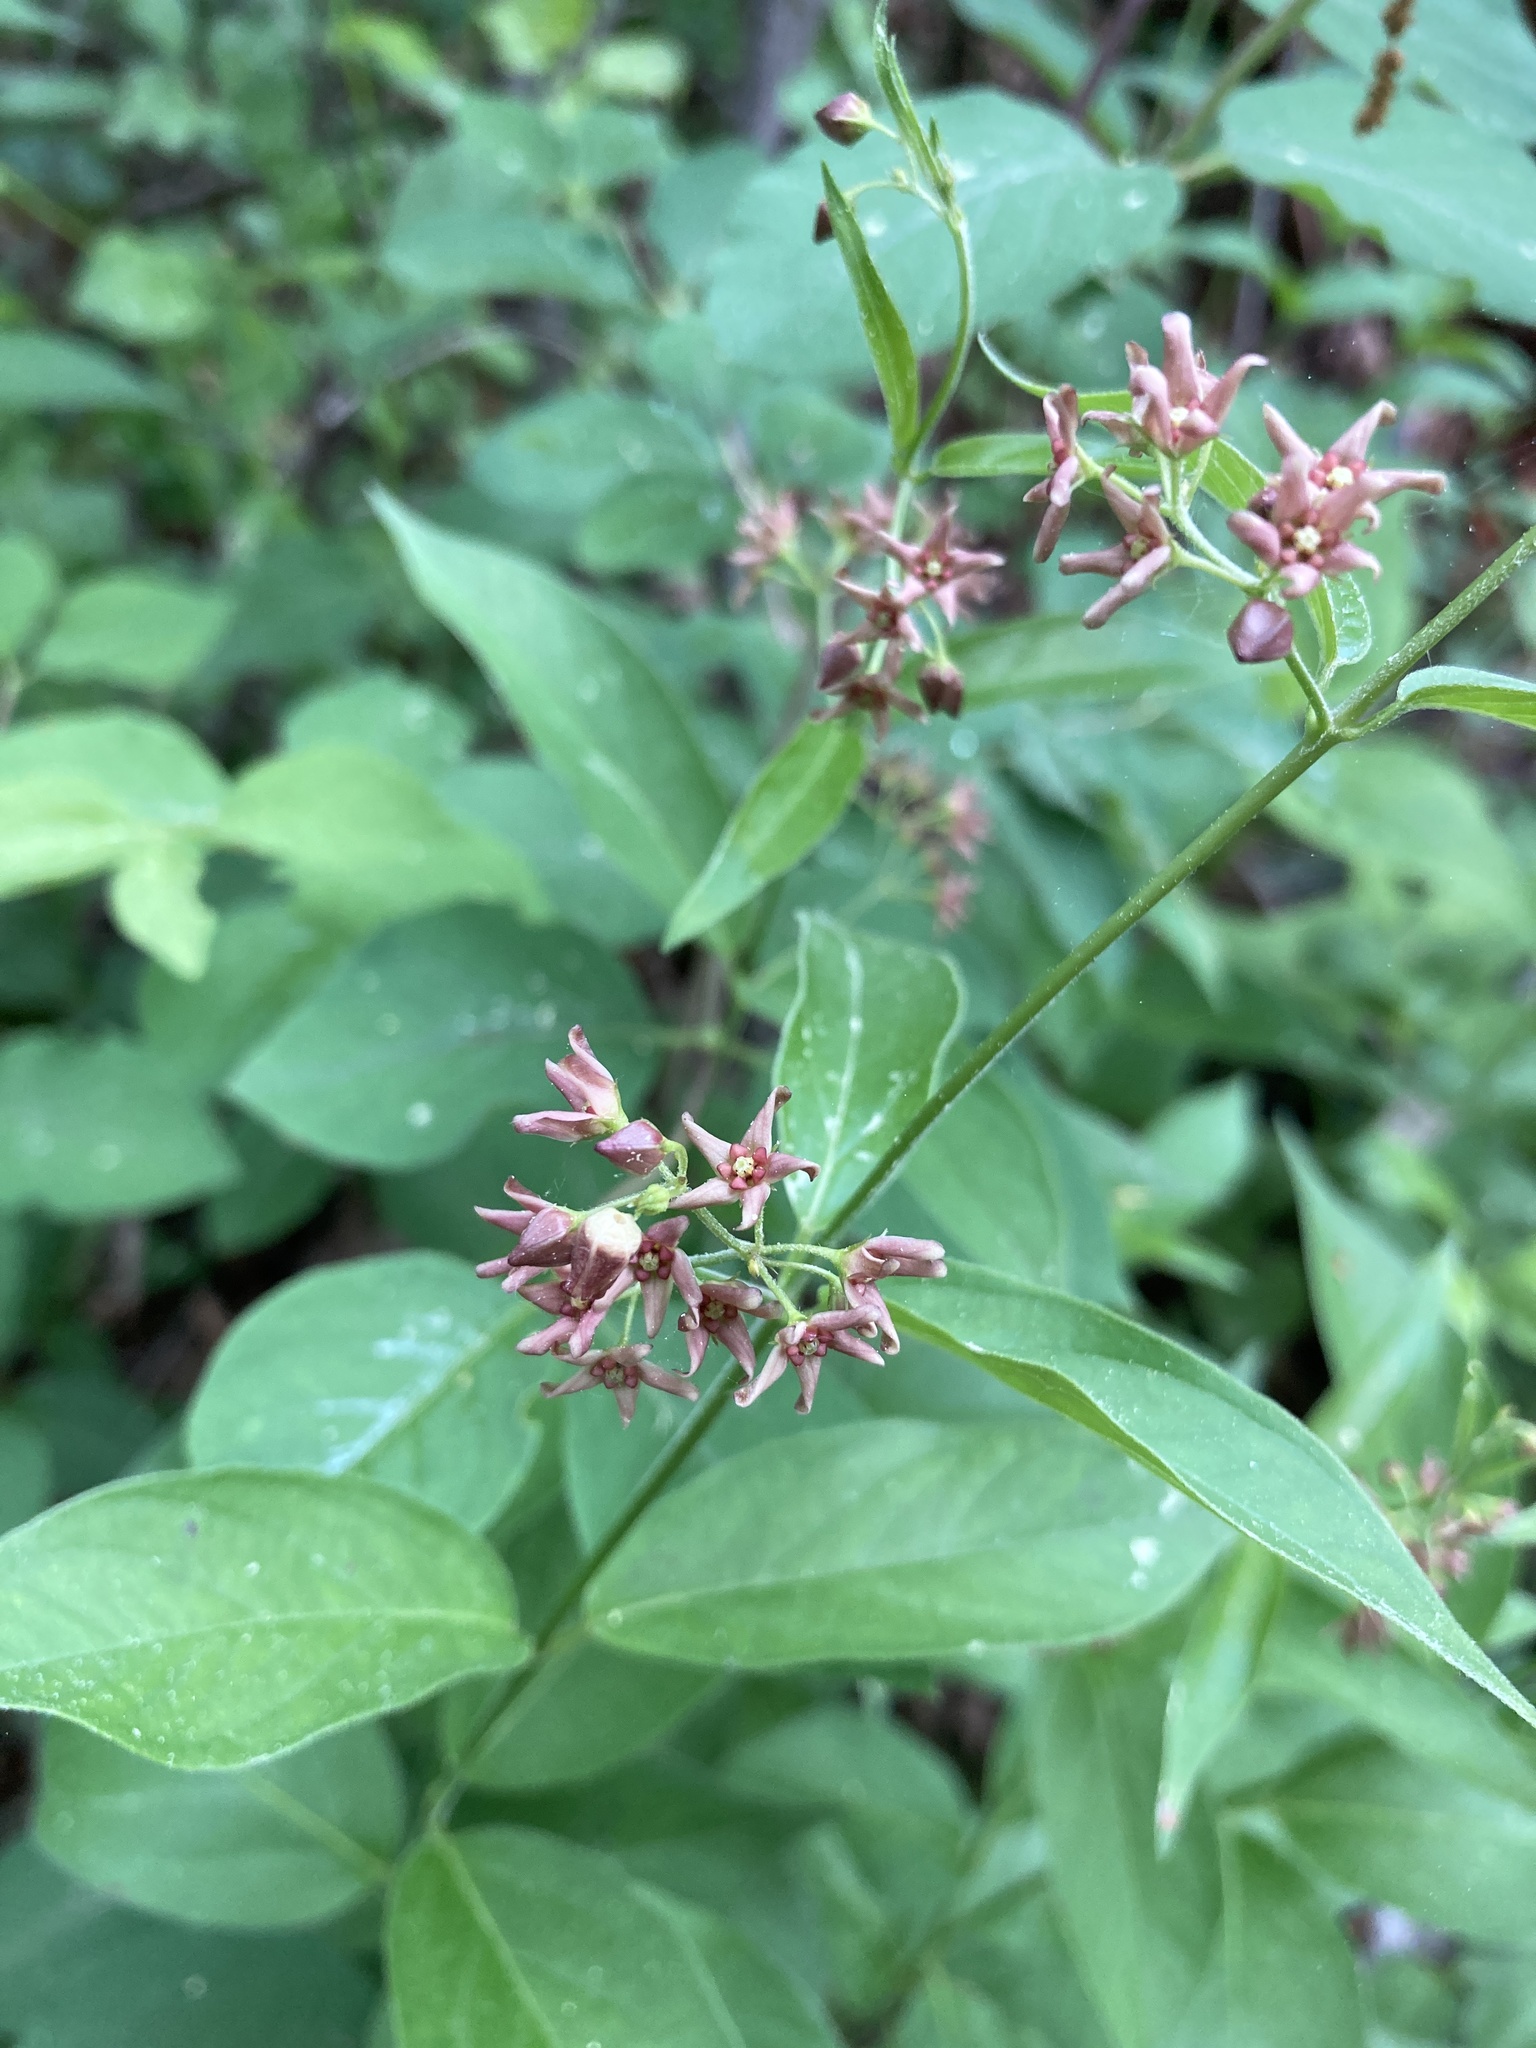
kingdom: Plantae
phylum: Tracheophyta
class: Magnoliopsida
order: Gentianales
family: Apocynaceae
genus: Vincetoxicum
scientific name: Vincetoxicum rossicum
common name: Dog-strangling vine
